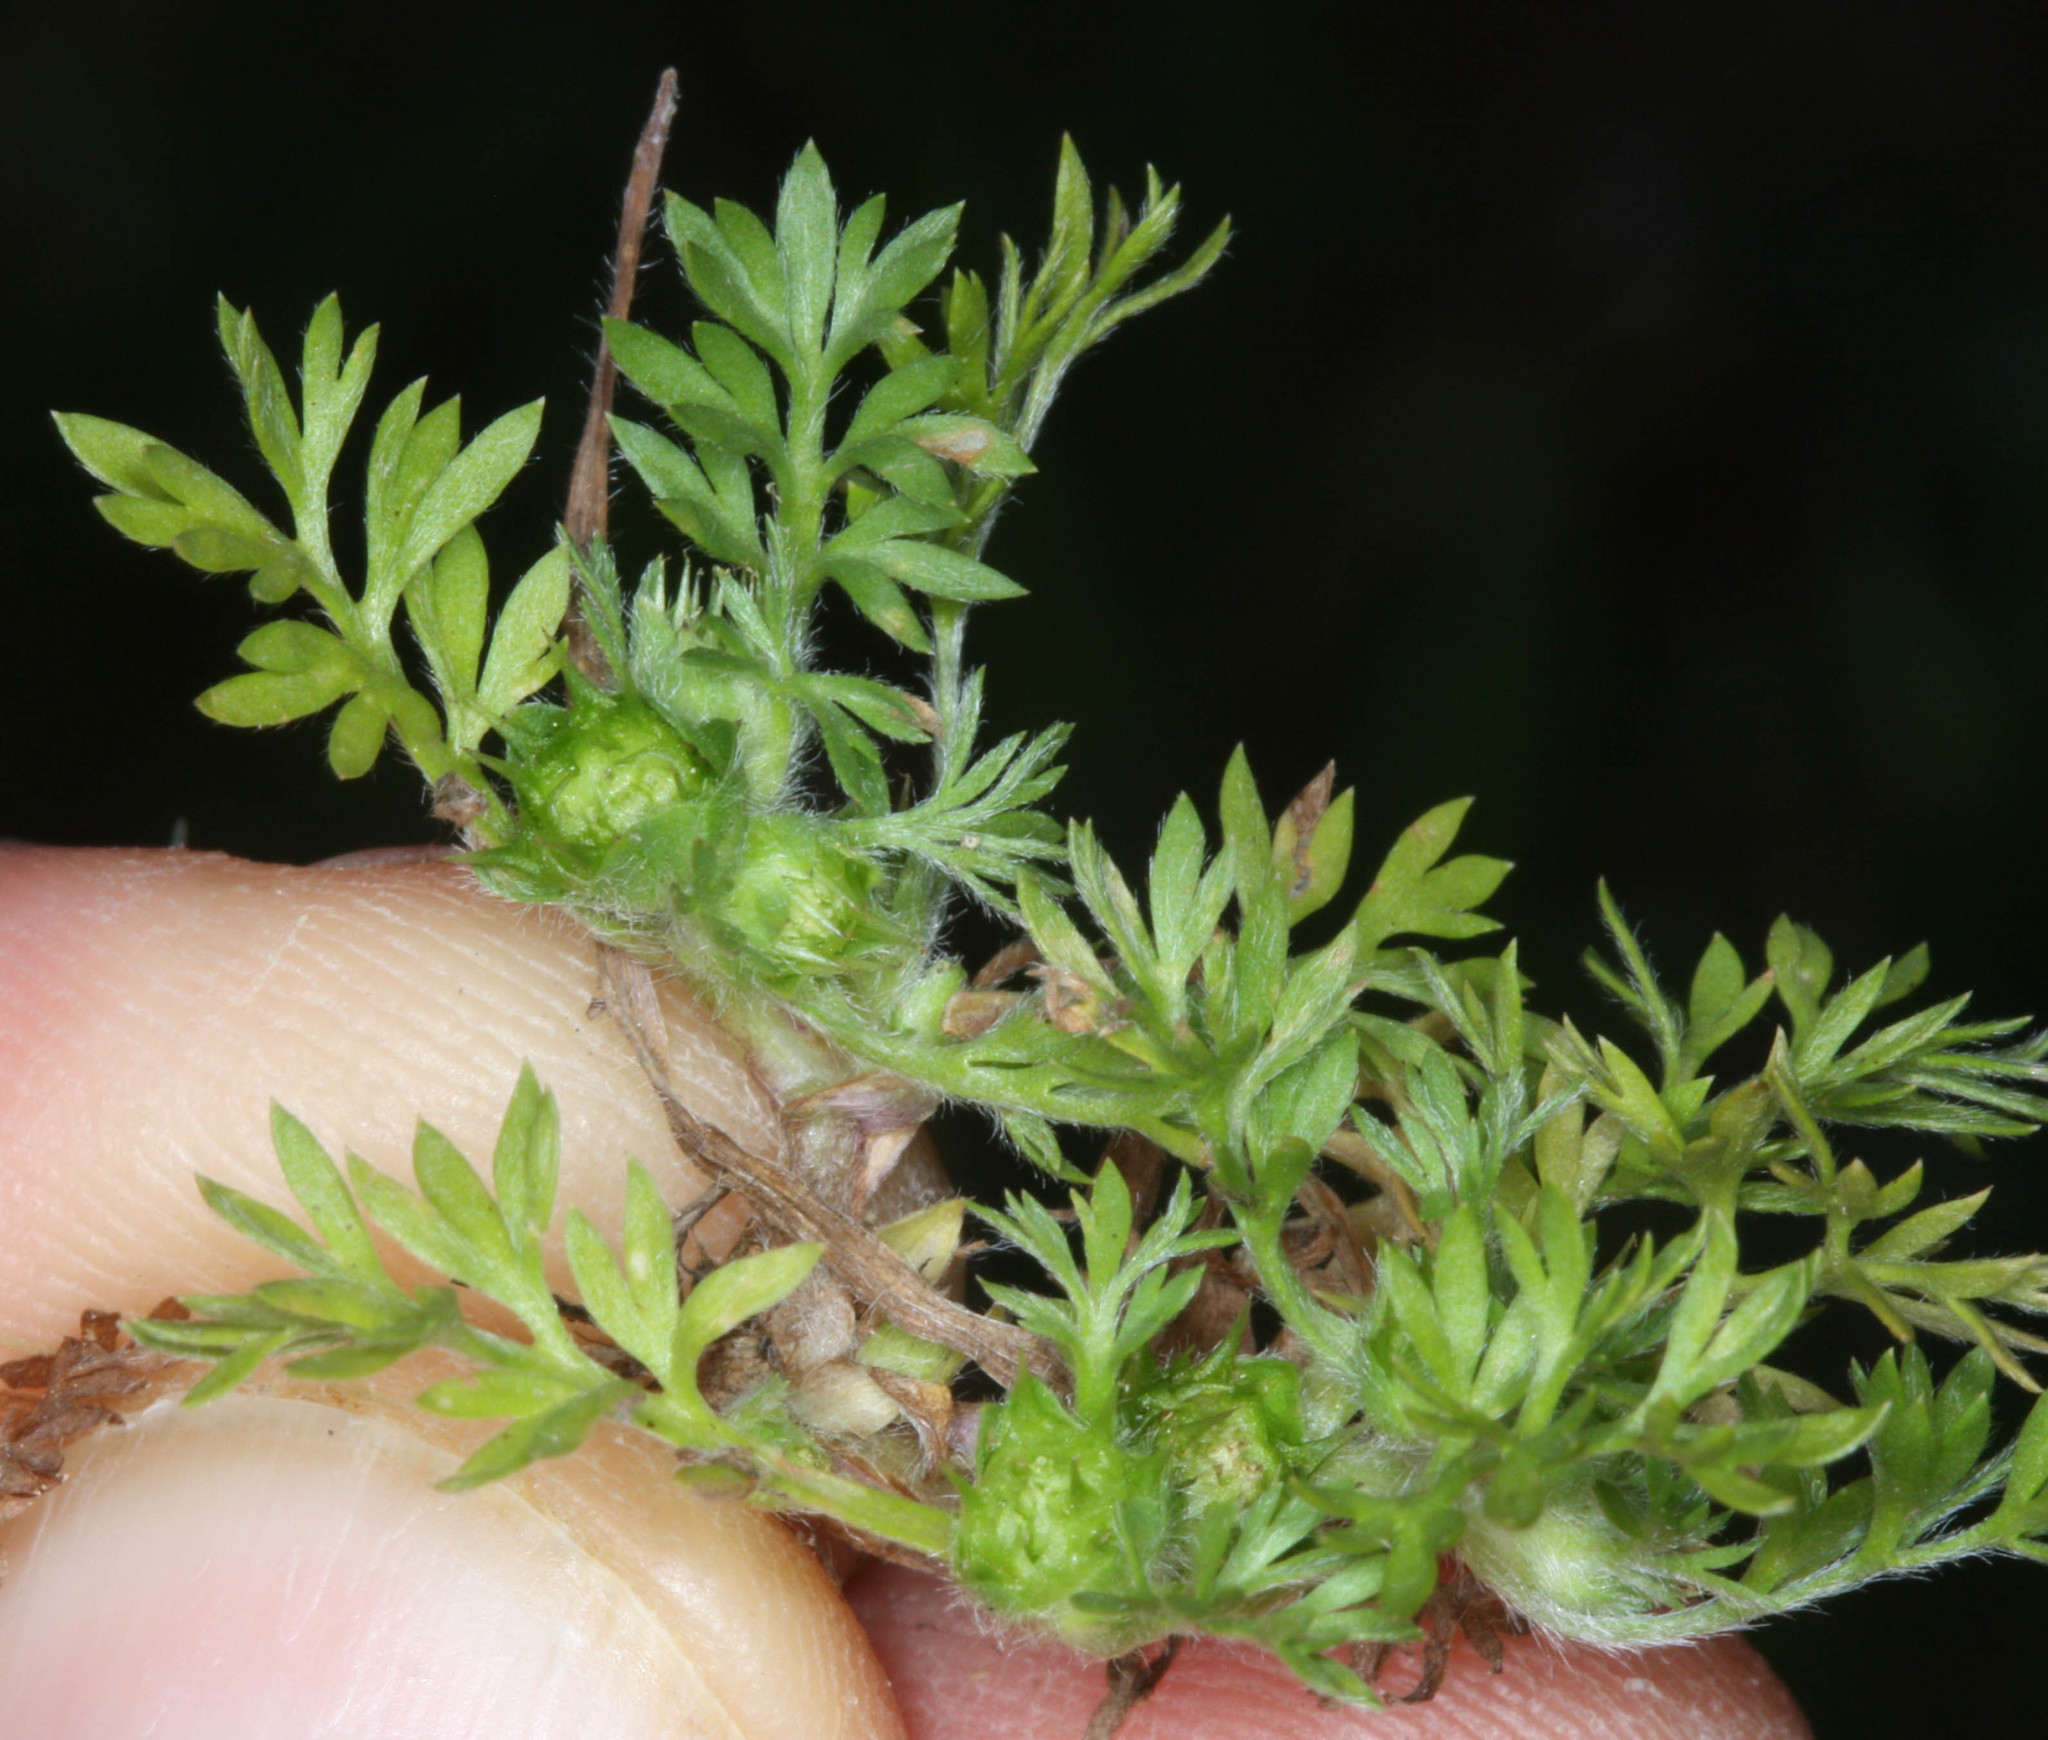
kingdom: Plantae
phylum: Tracheophyta
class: Magnoliopsida
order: Asterales
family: Asteraceae
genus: Soliva
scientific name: Soliva sessilis
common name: Field burrweed
